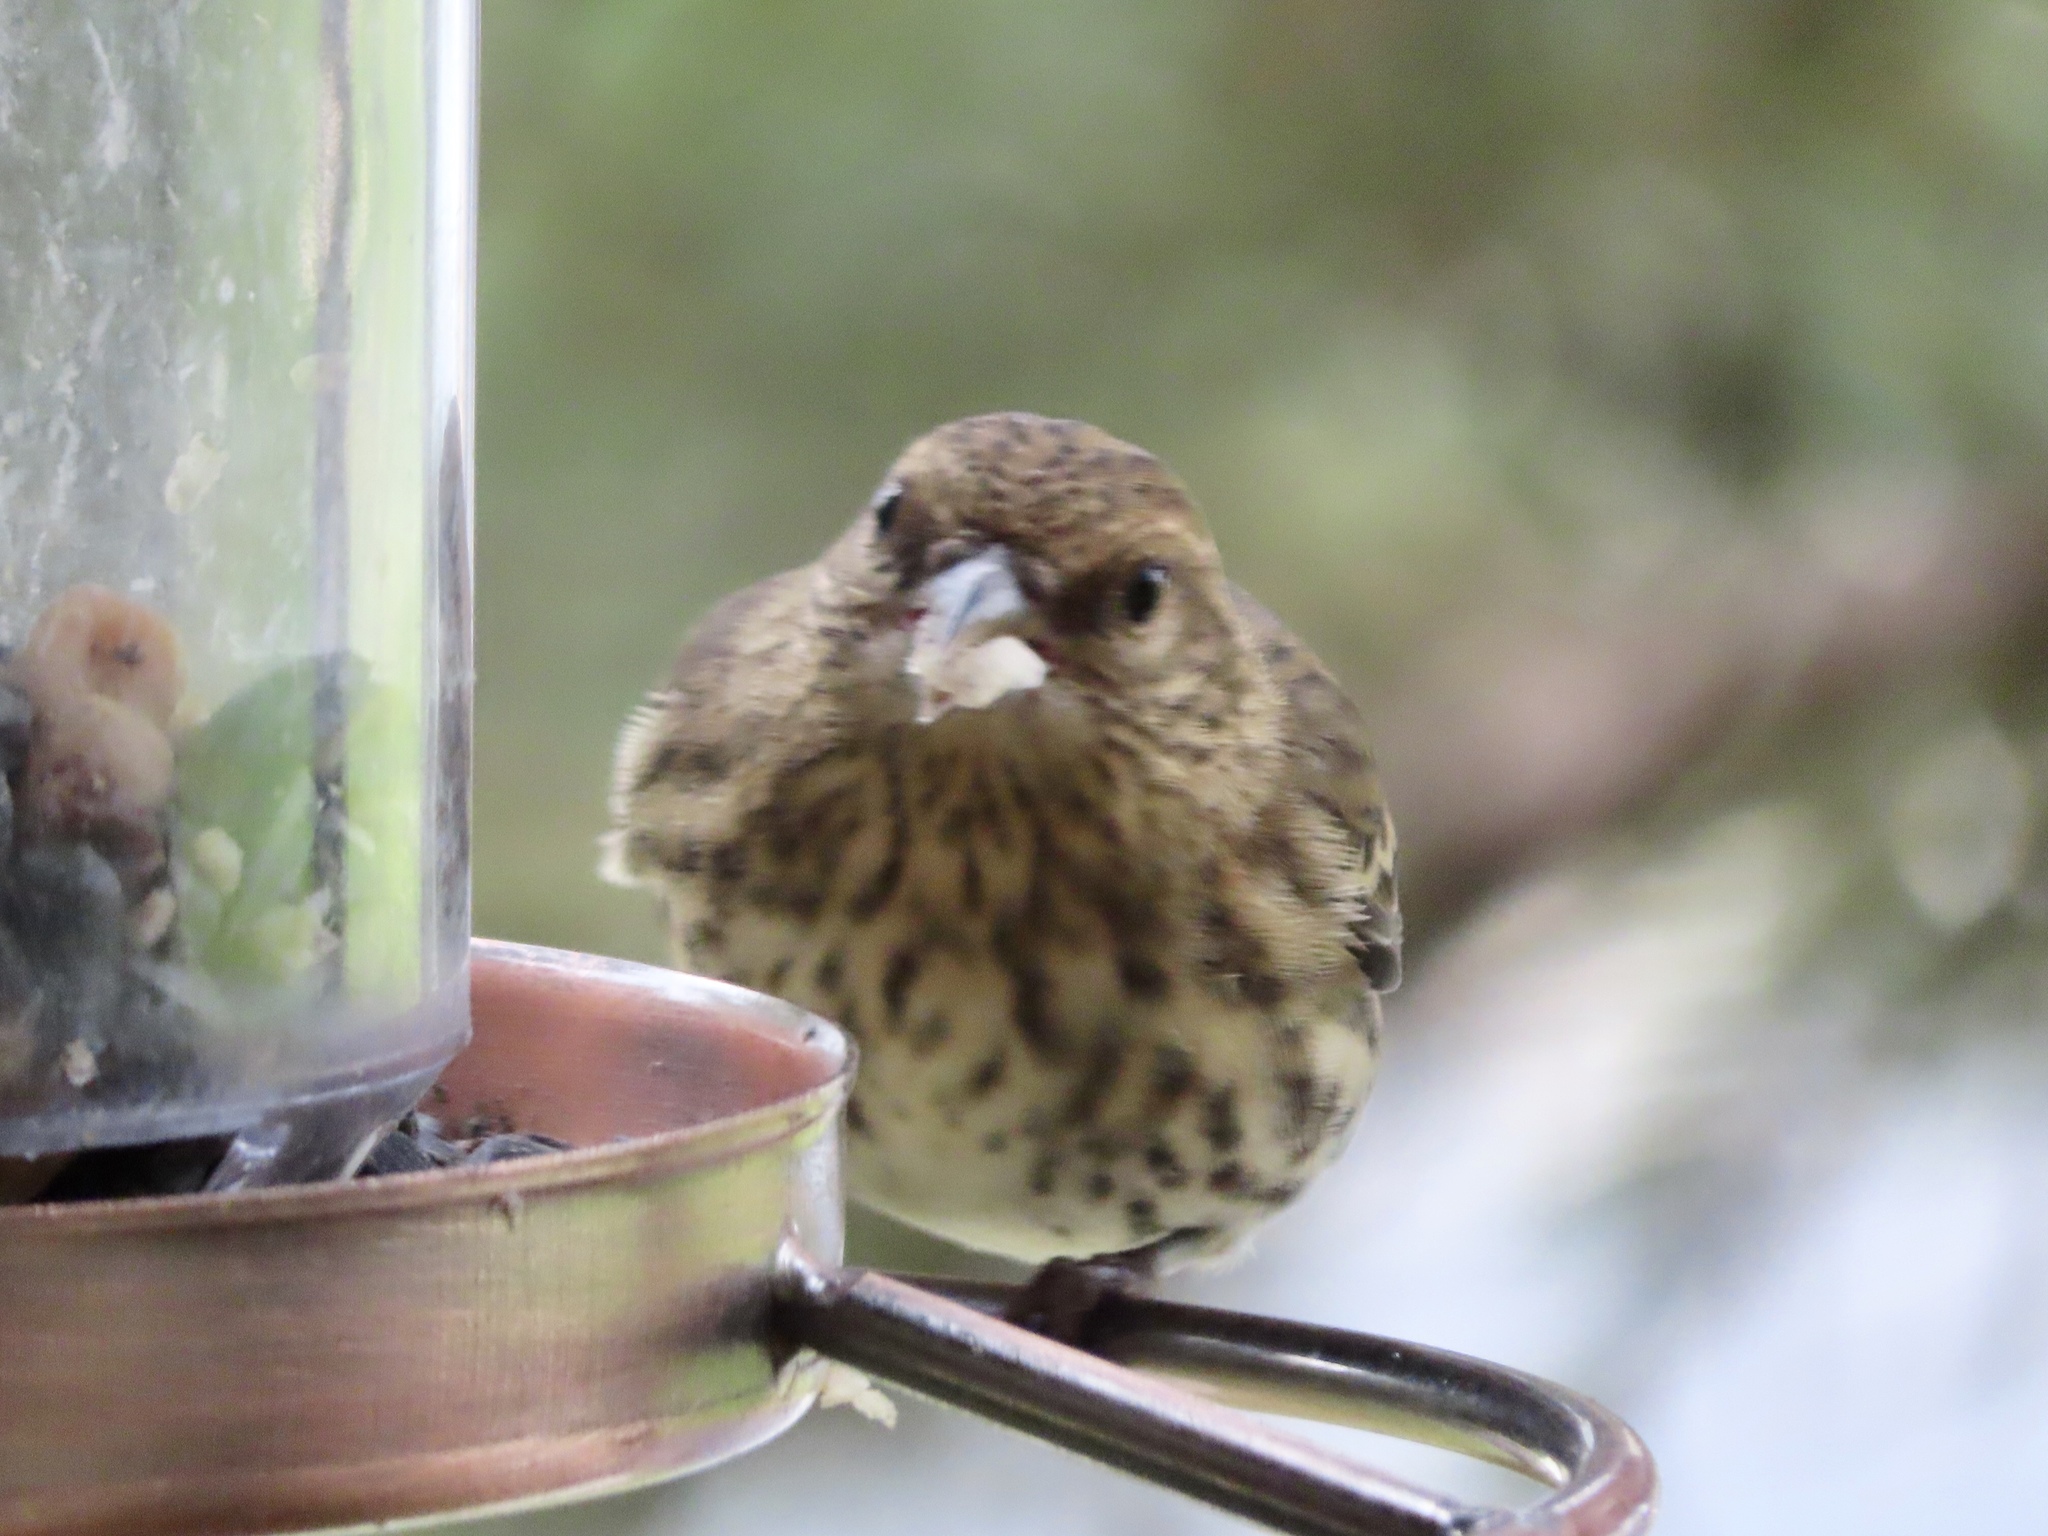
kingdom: Animalia
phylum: Chordata
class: Aves
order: Passeriformes
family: Fringillidae
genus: Spinus
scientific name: Spinus pinus
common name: Pine siskin
